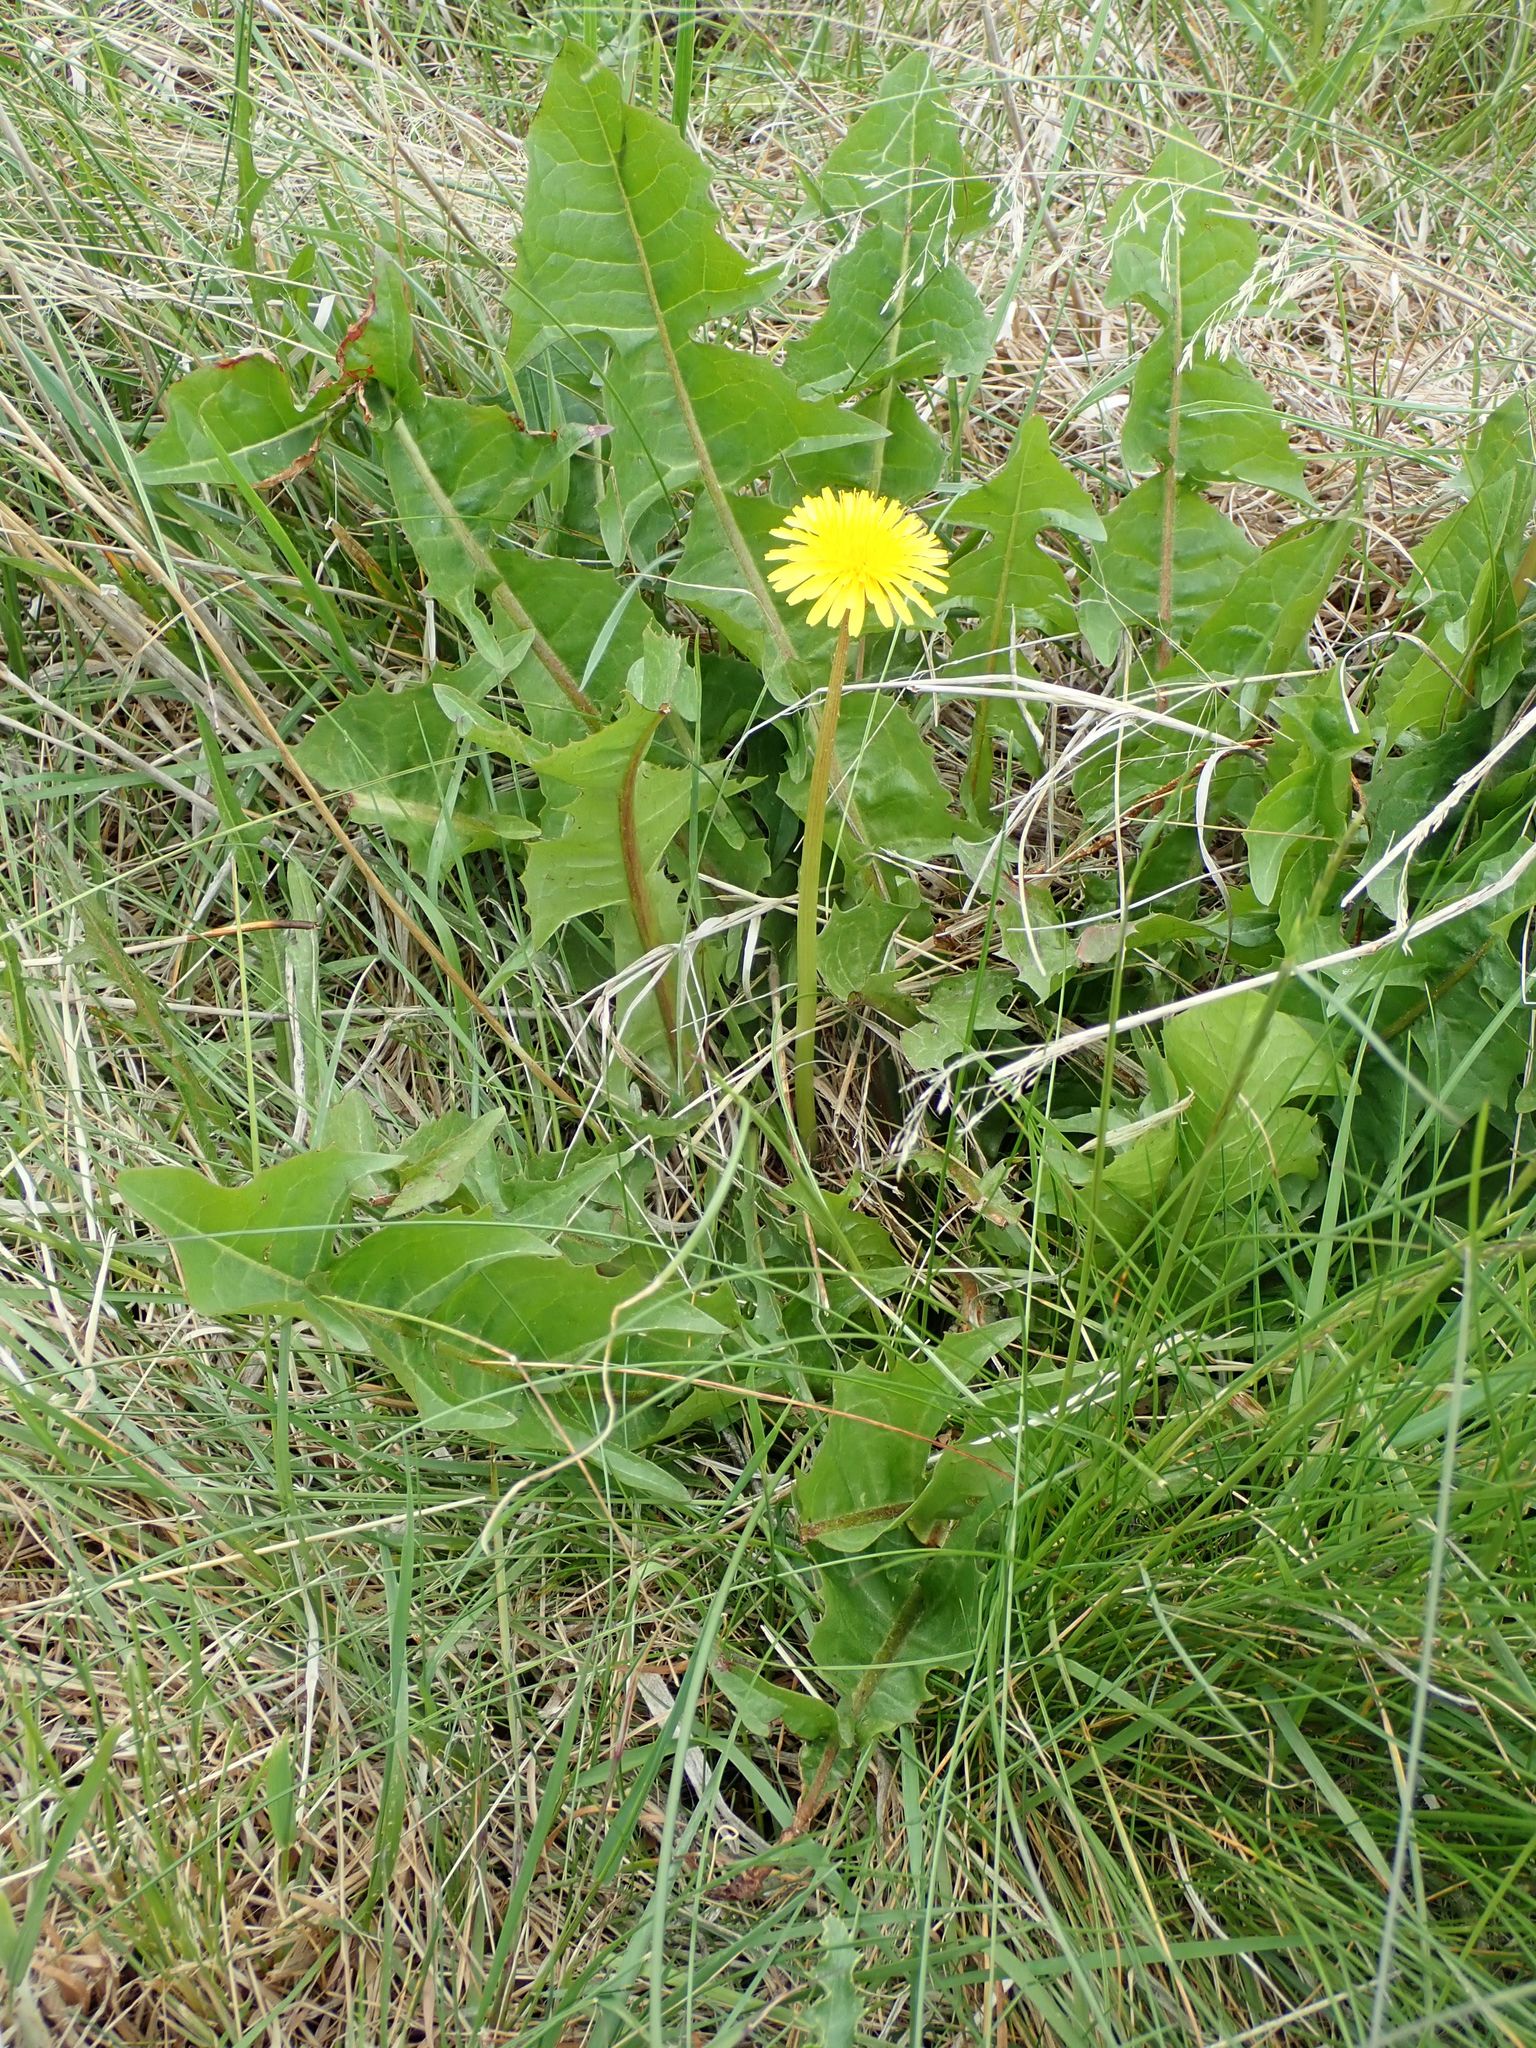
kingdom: Plantae
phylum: Tracheophyta
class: Magnoliopsida
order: Asterales
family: Asteraceae
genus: Taraxacum
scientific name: Taraxacum officinale
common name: Common dandelion
